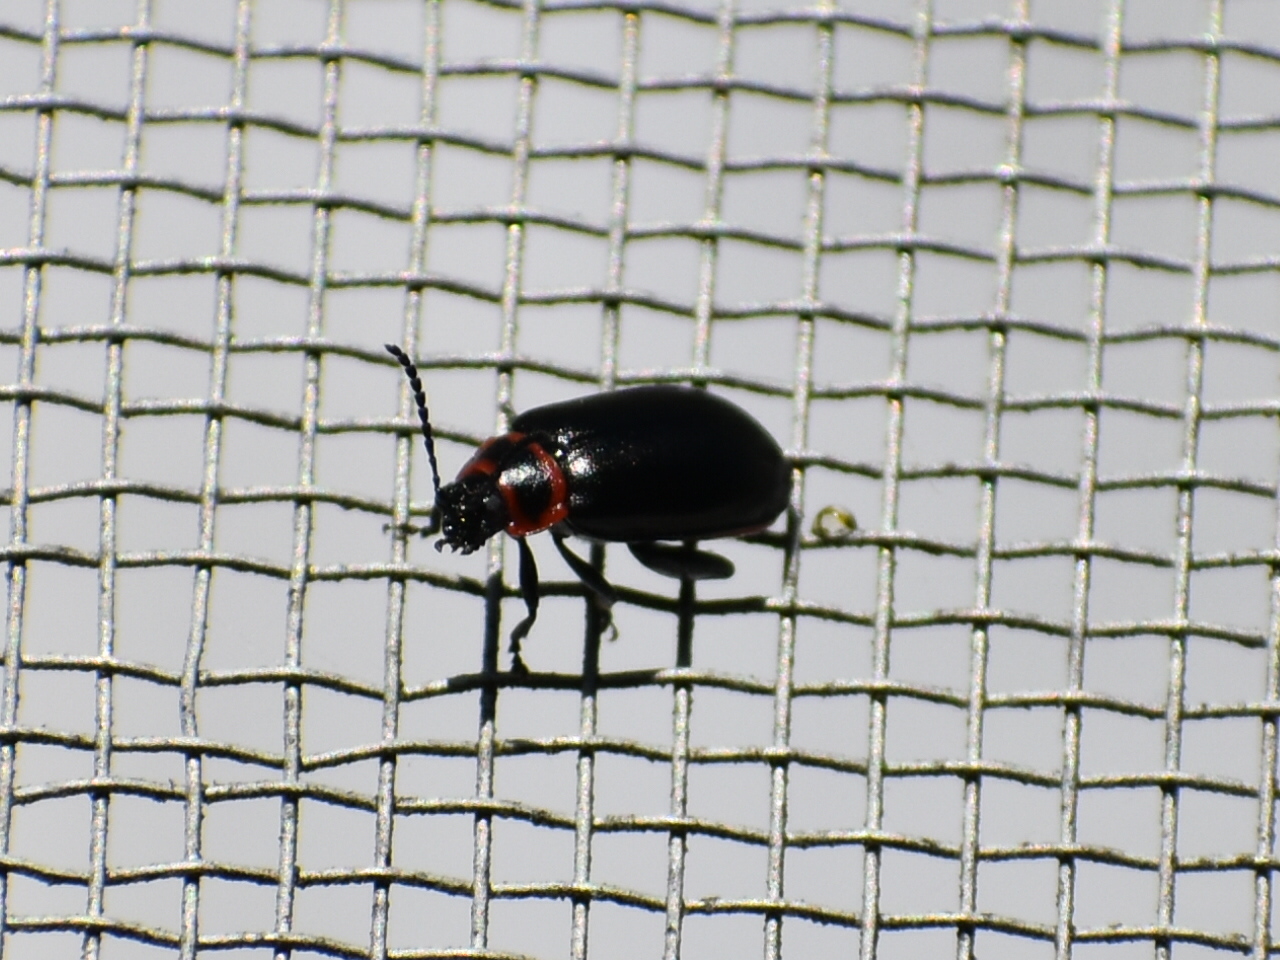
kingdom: Animalia
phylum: Arthropoda
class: Insecta
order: Coleoptera
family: Chrysomelidae
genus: Kuschelina
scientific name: Kuschelina vians
